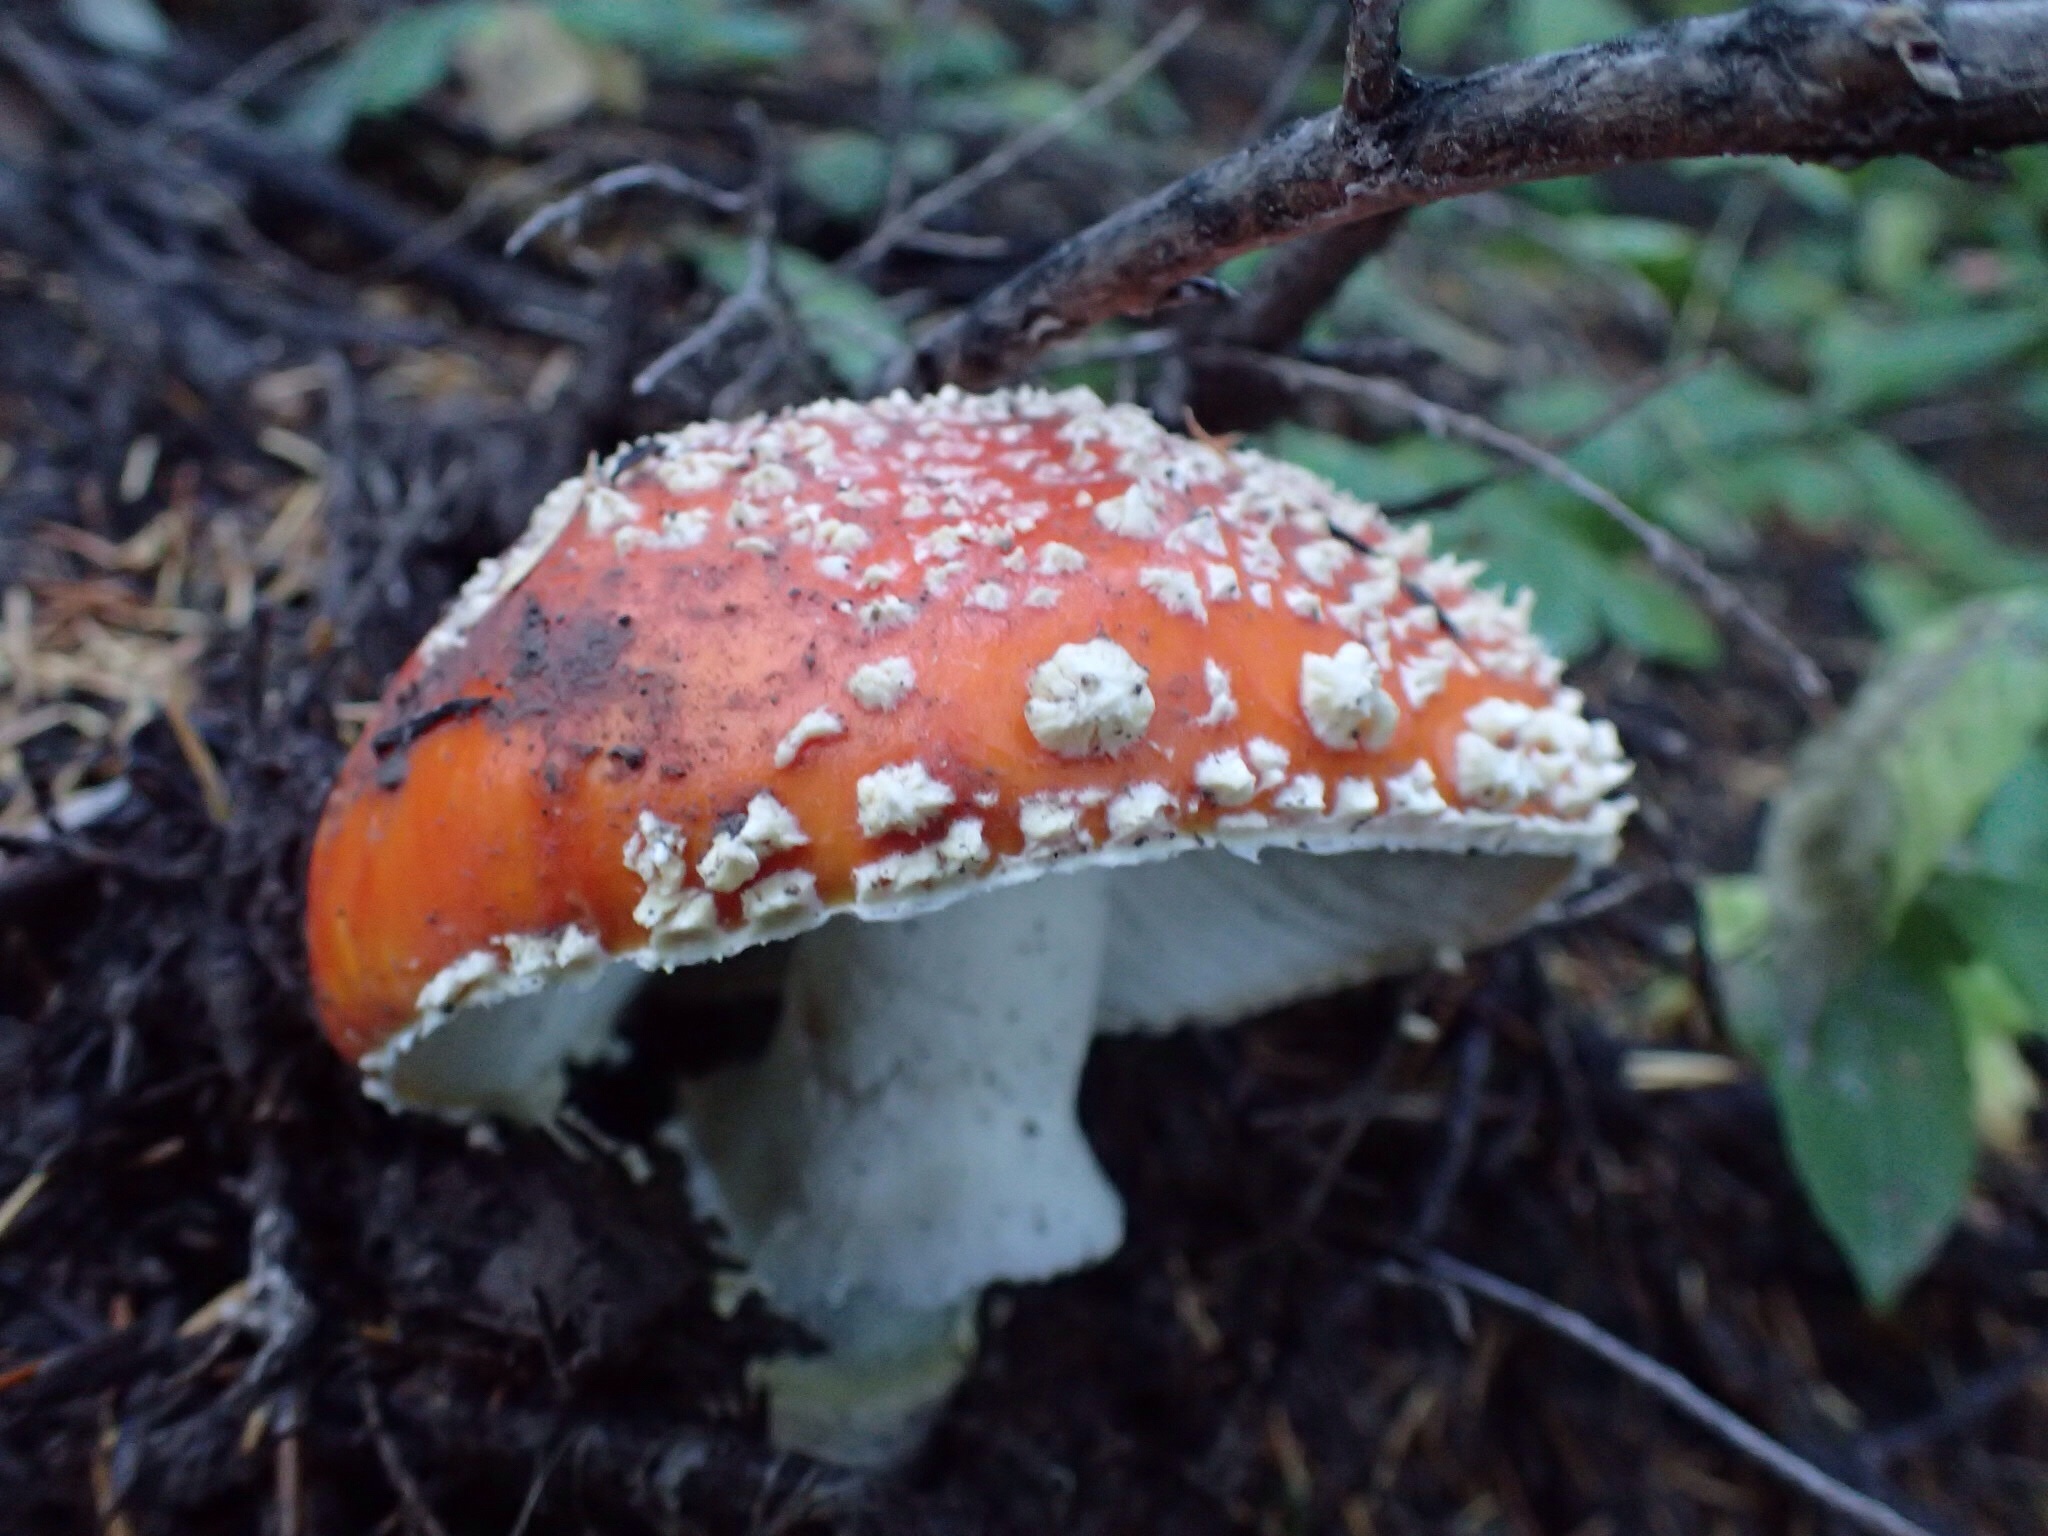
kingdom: Fungi
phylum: Basidiomycota
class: Agaricomycetes
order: Agaricales
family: Amanitaceae
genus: Amanita
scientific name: Amanita muscaria
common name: Fly agaric
